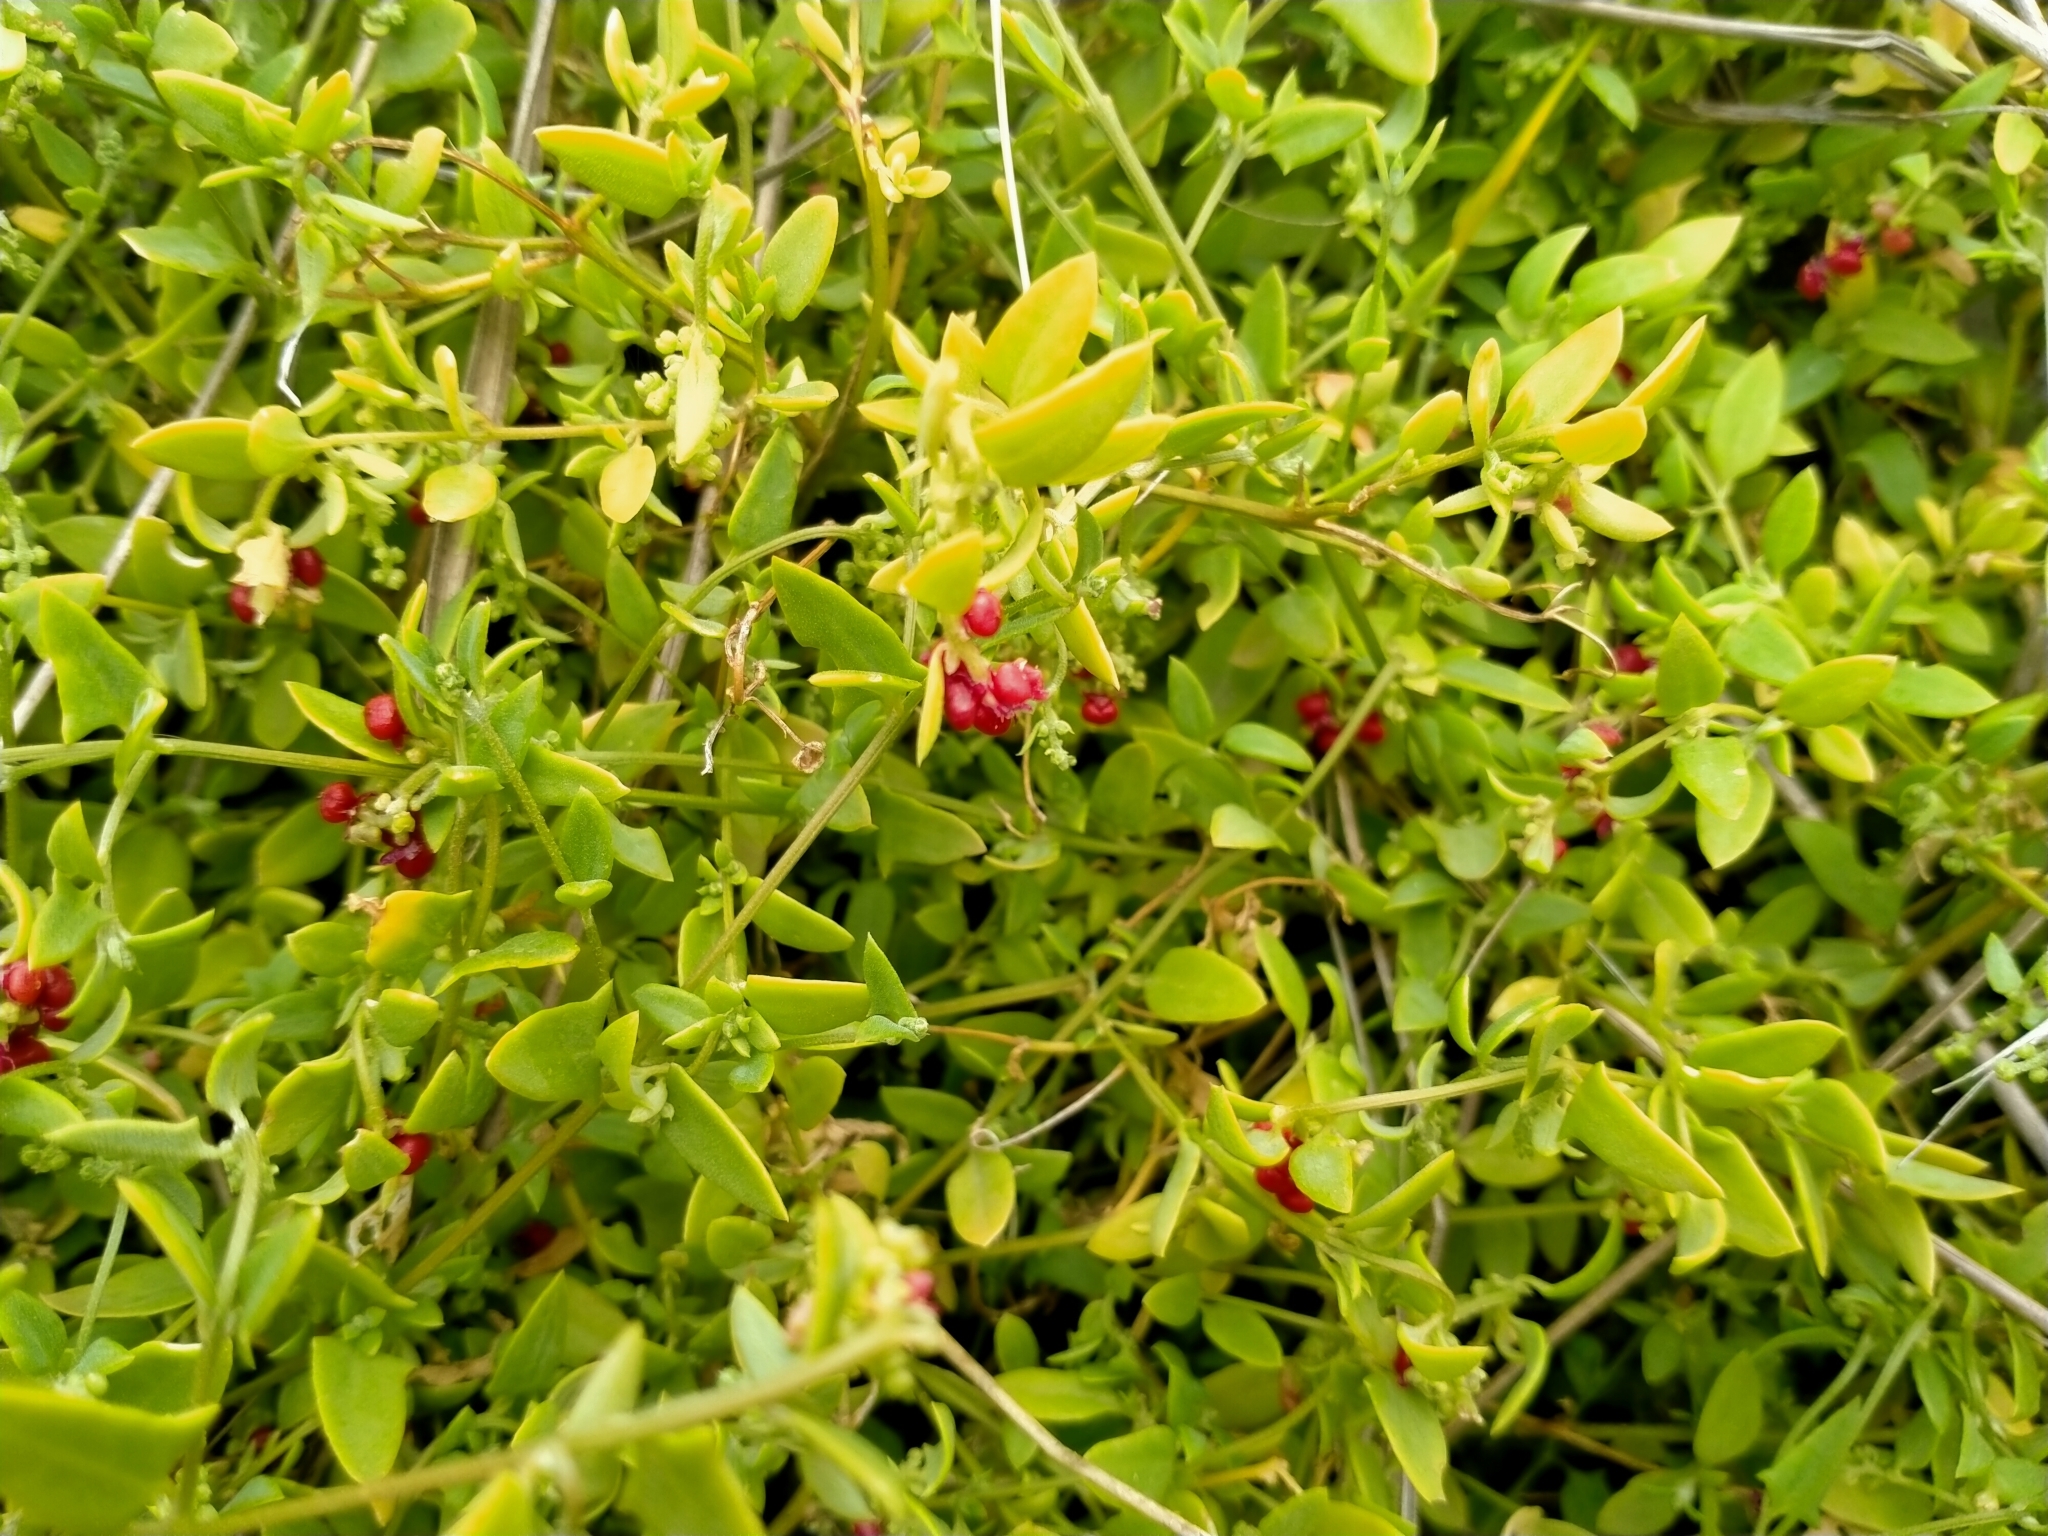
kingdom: Plantae
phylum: Tracheophyta
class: Magnoliopsida
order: Caryophyllales
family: Amaranthaceae
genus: Chenopodium
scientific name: Chenopodium nutans
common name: Climbing-saltbush
